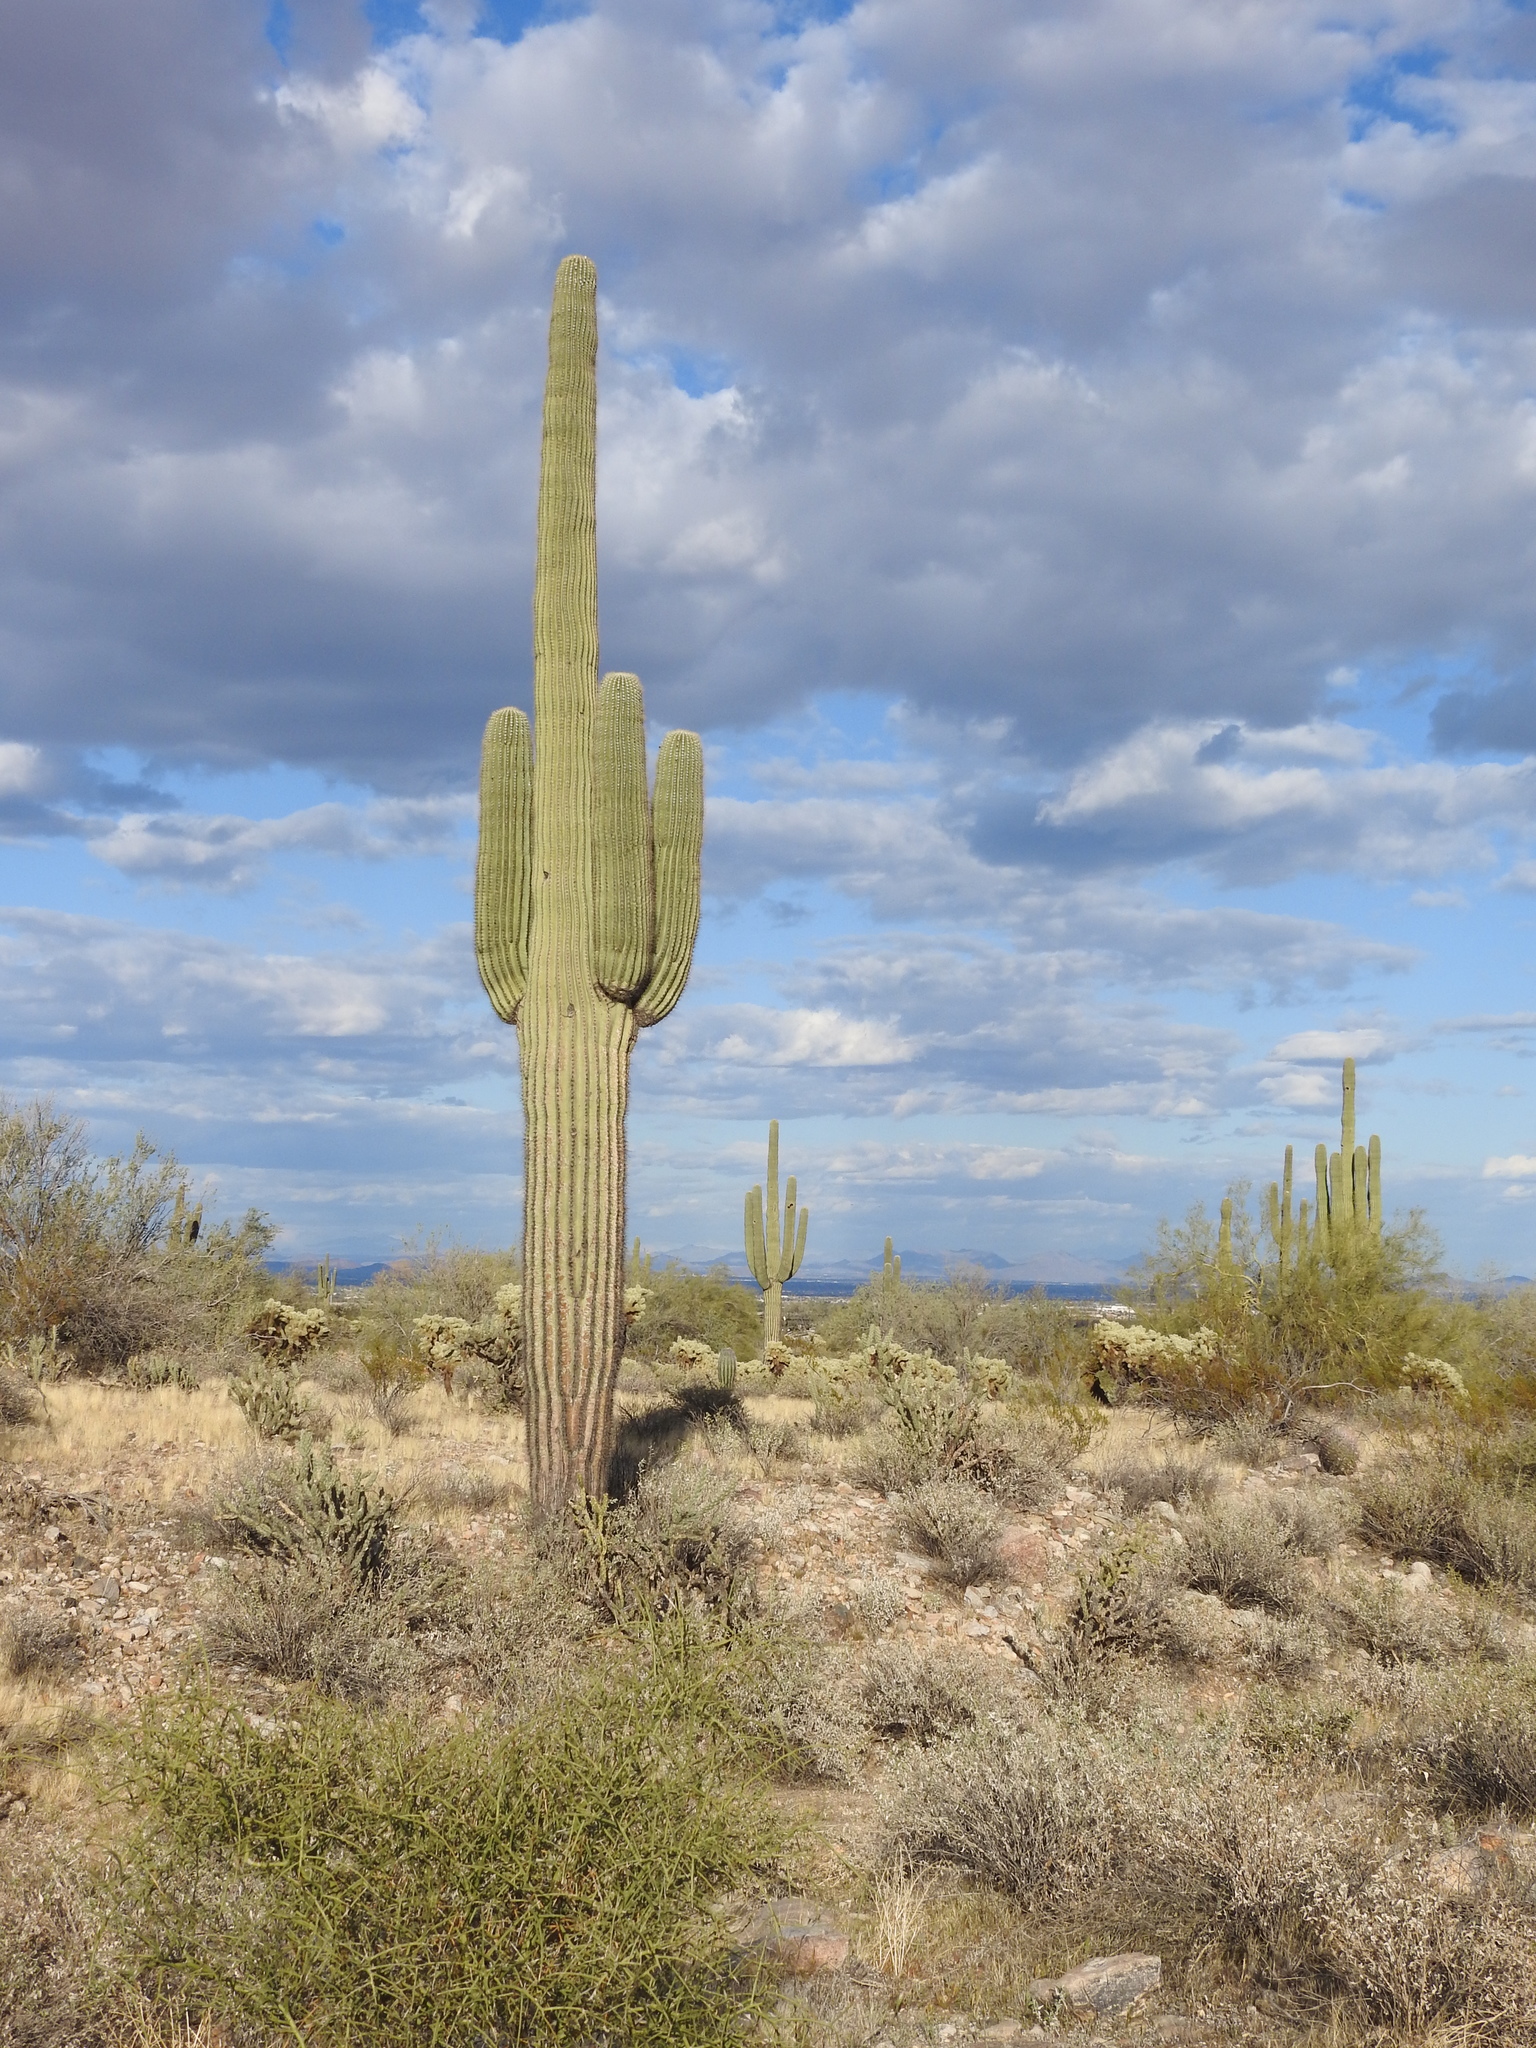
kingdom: Plantae
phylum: Tracheophyta
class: Magnoliopsida
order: Caryophyllales
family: Cactaceae
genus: Carnegiea
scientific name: Carnegiea gigantea
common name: Saguaro
